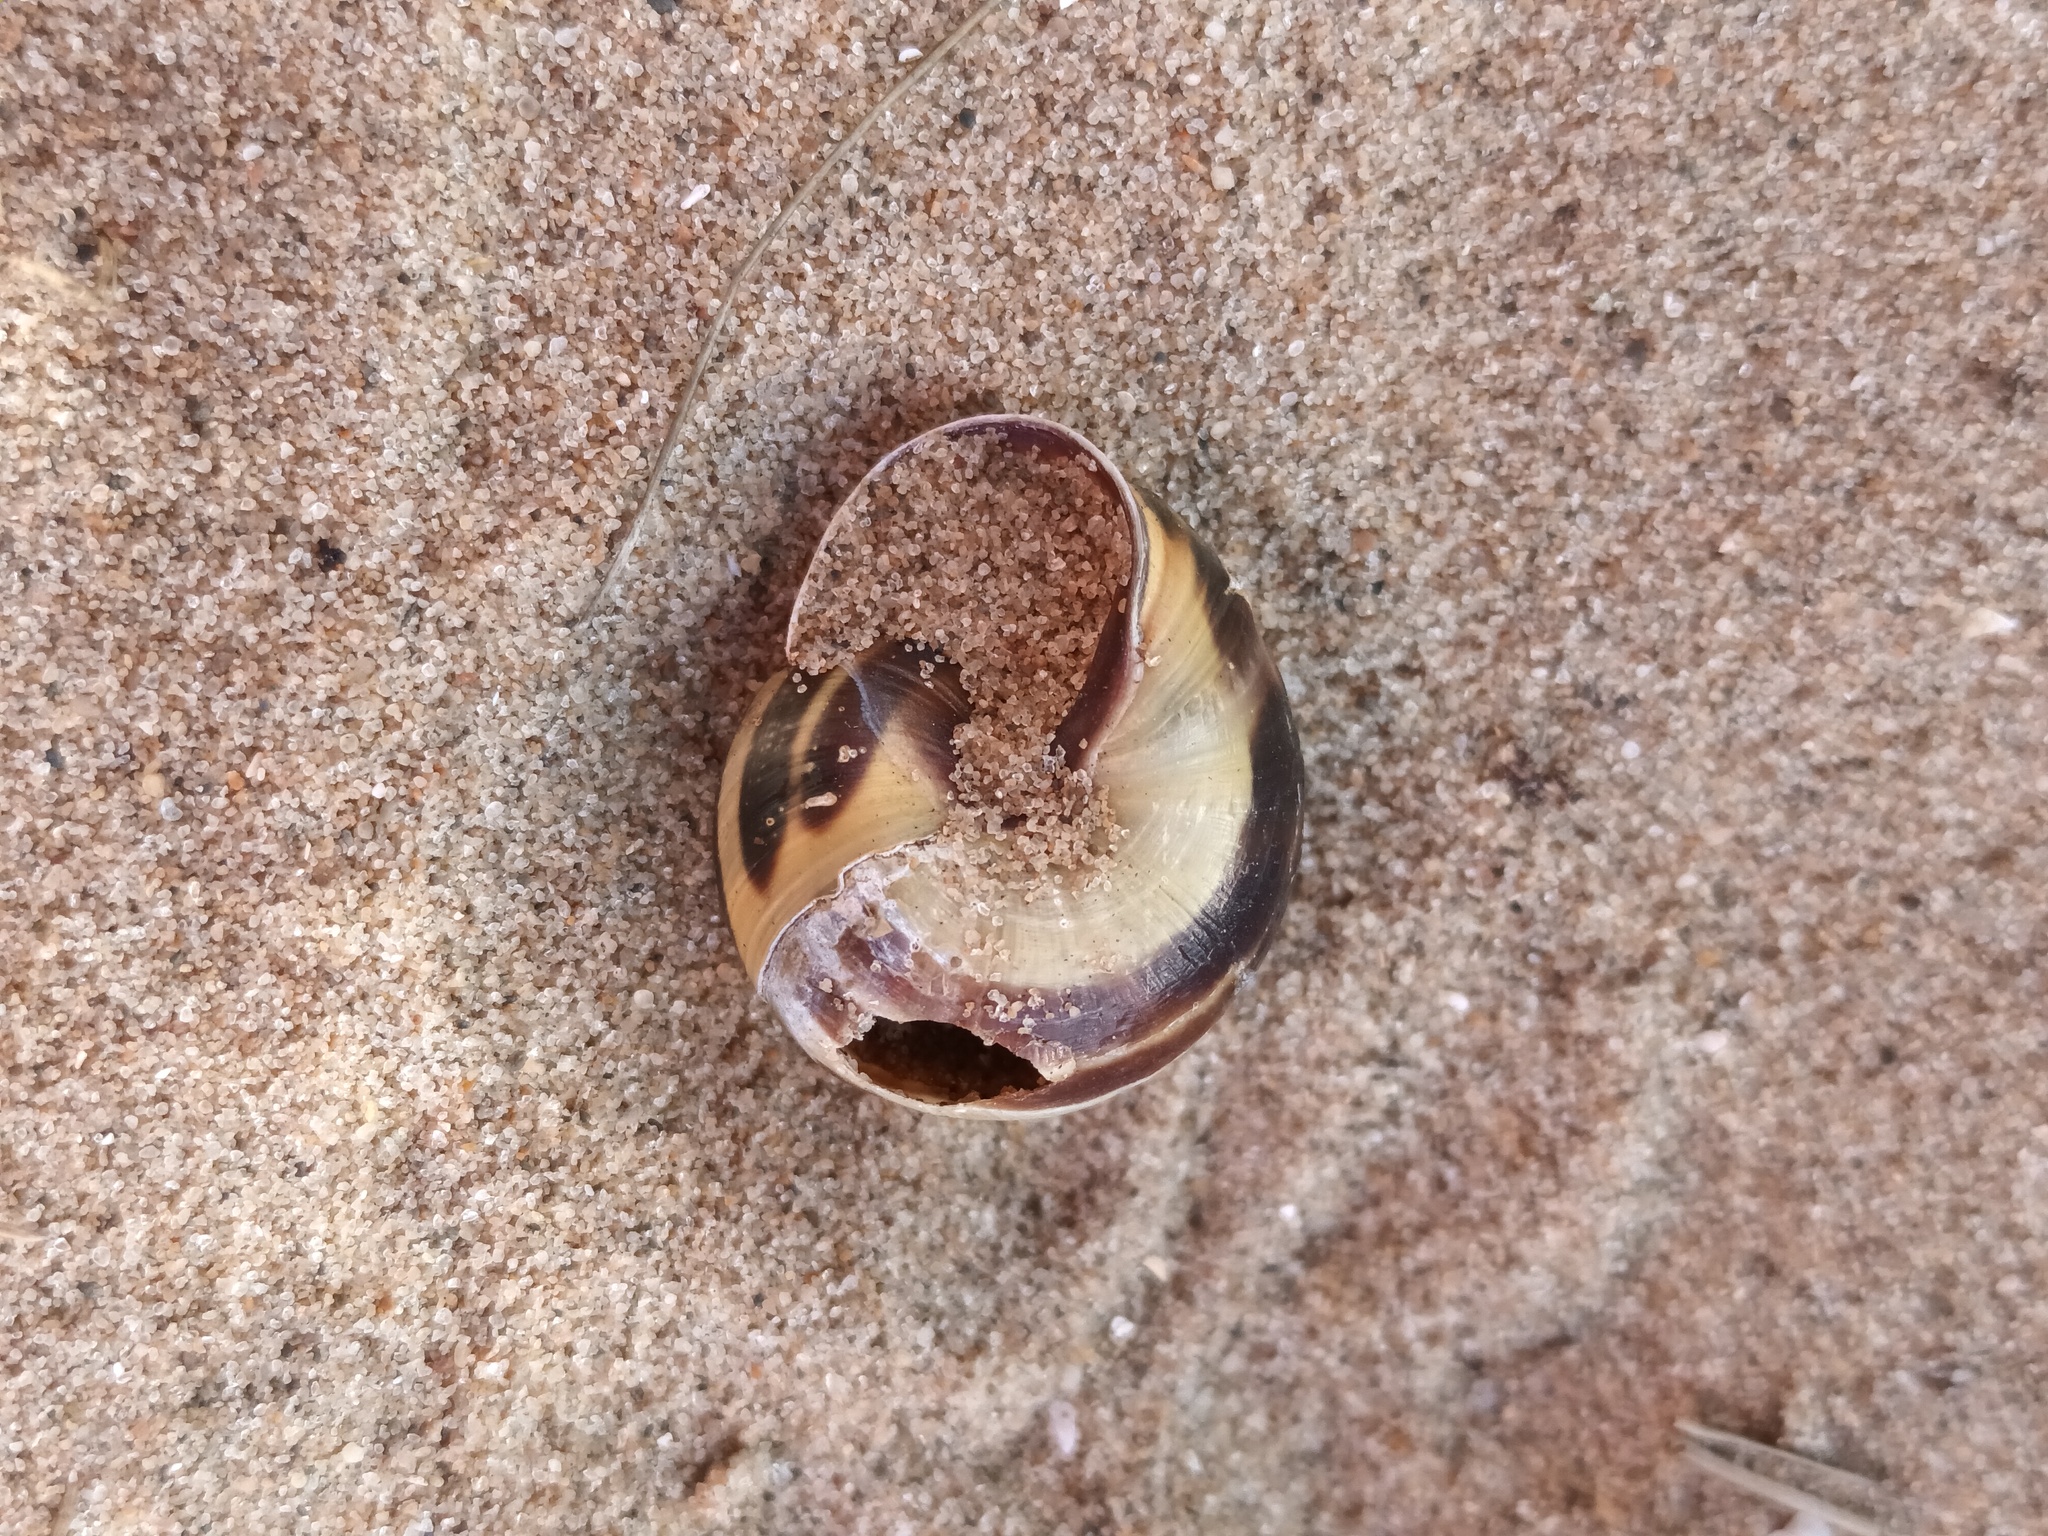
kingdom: Animalia
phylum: Mollusca
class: Gastropoda
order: Stylommatophora
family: Helicidae
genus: Cepaea
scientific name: Cepaea nemoralis
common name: Grovesnail
